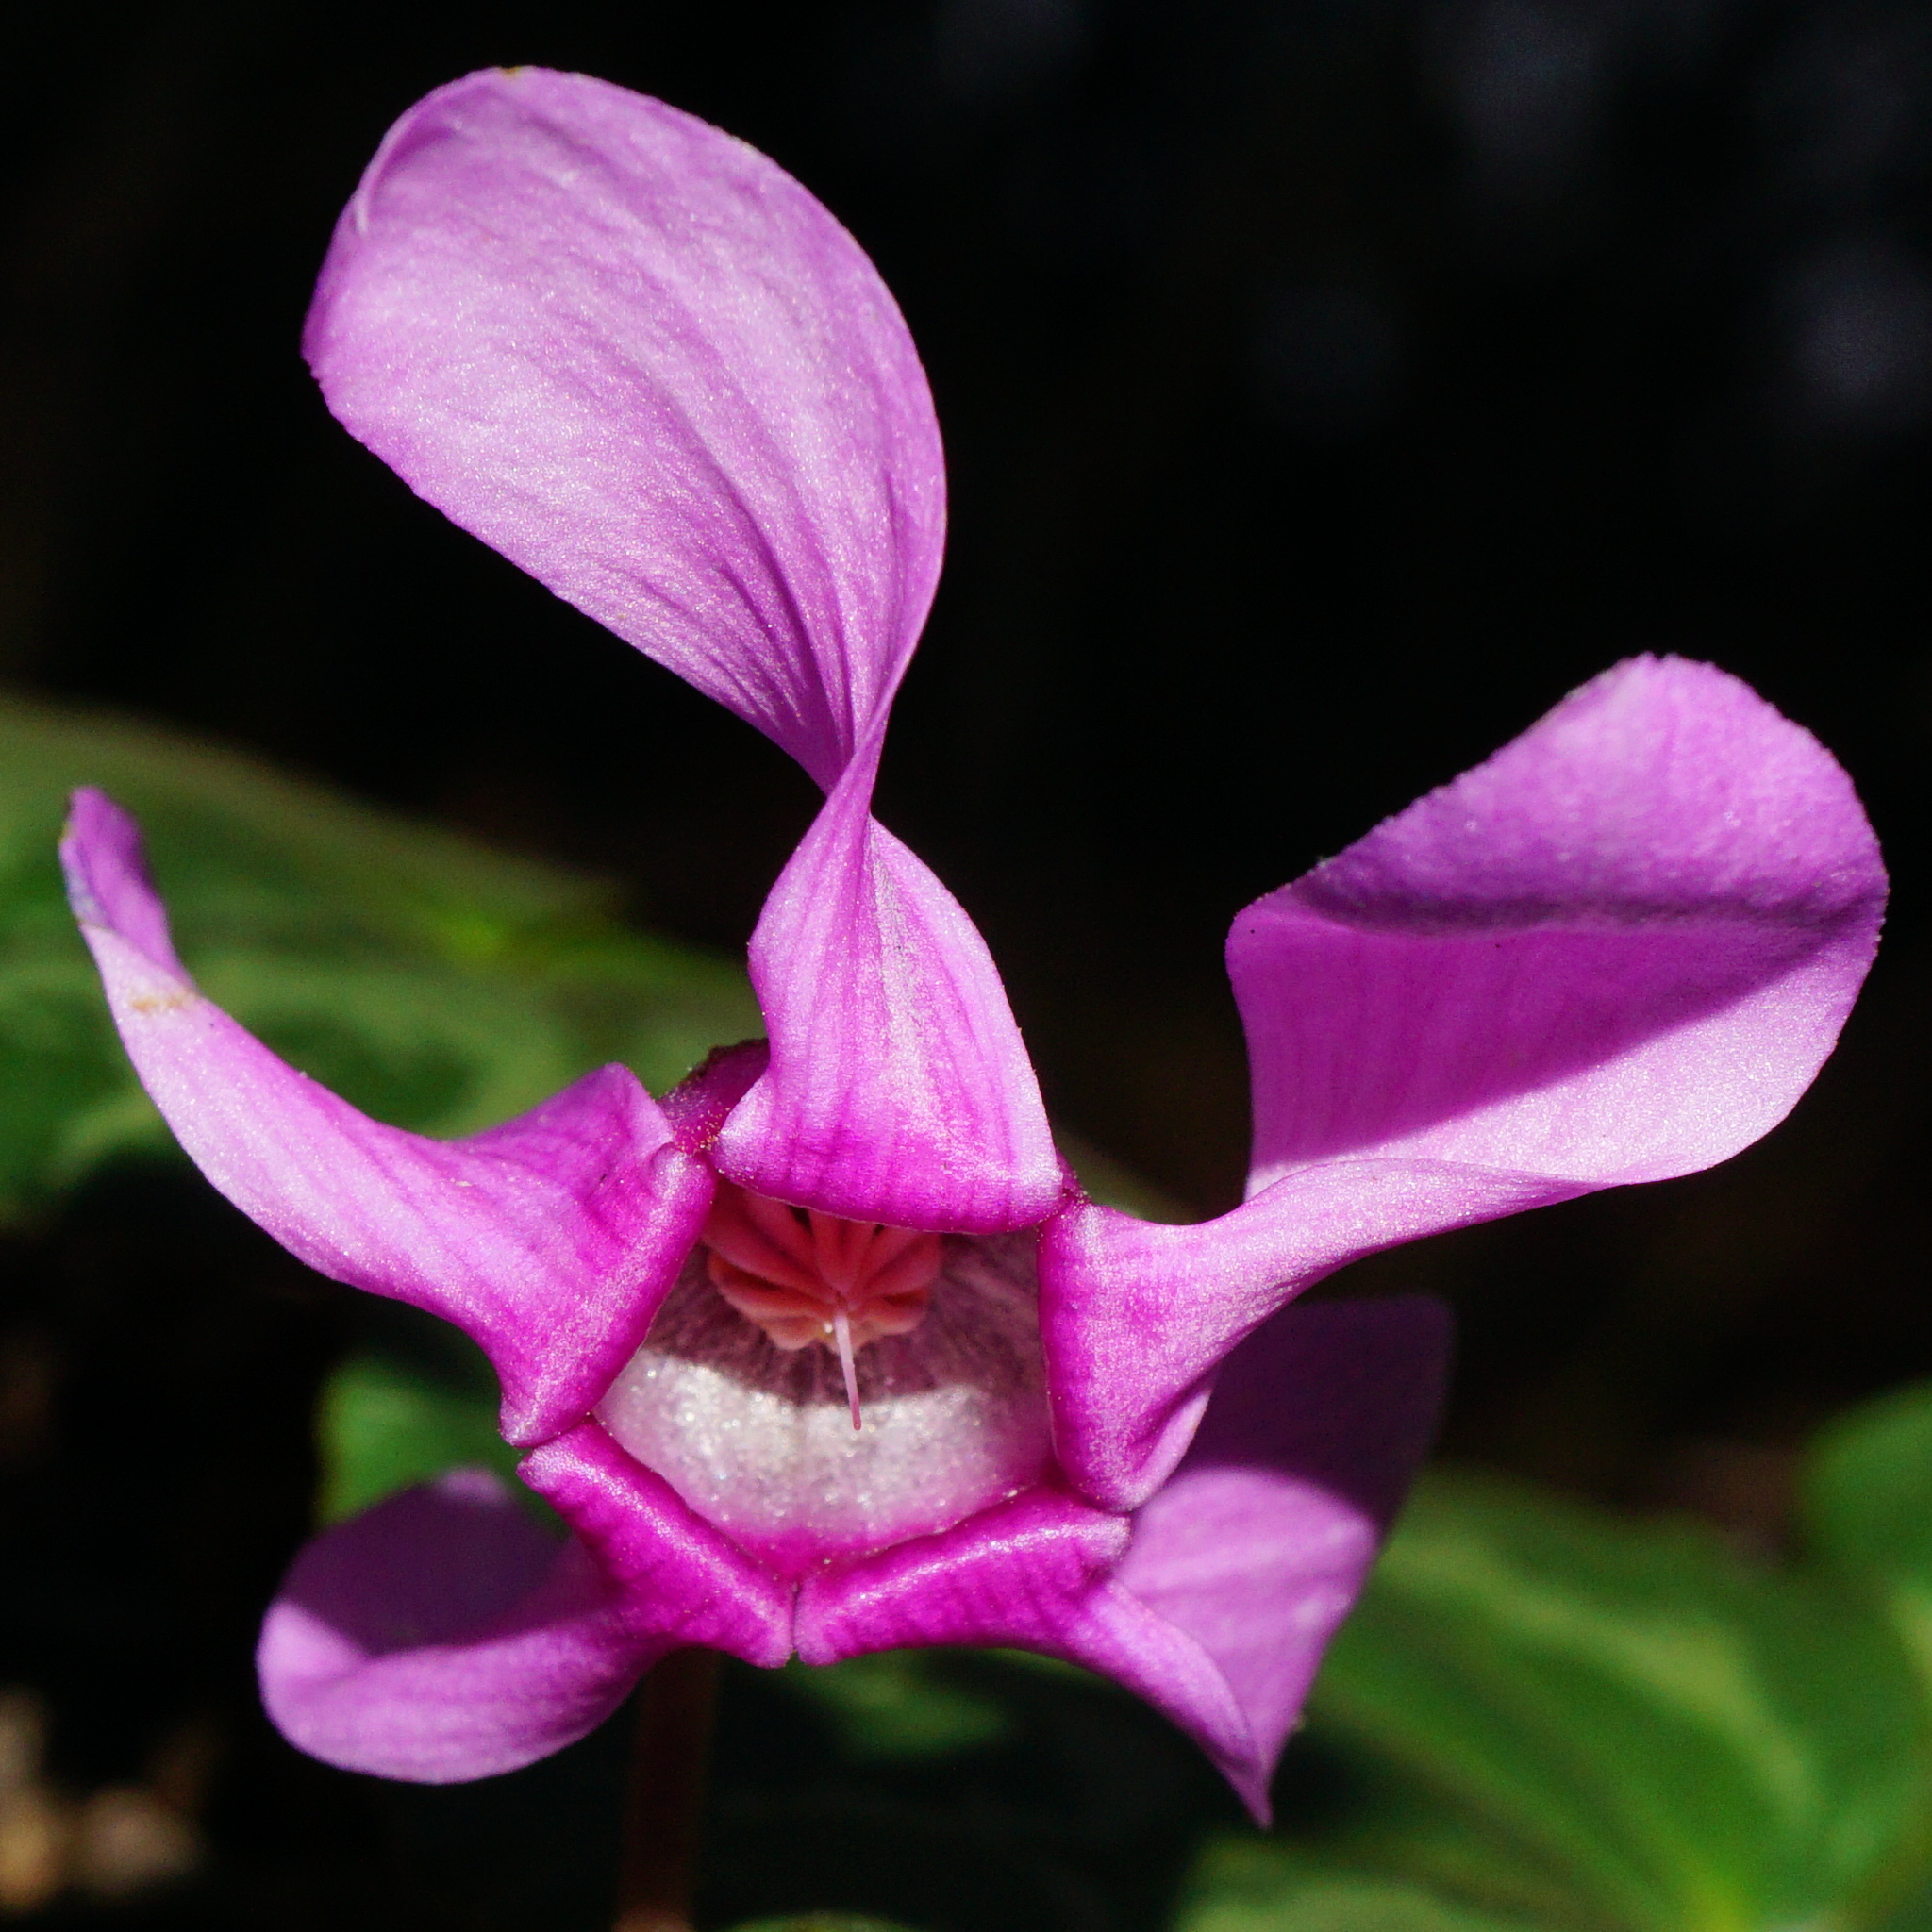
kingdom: Plantae
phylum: Tracheophyta
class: Magnoliopsida
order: Ericales
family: Primulaceae
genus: Cyclamen
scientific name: Cyclamen purpurascens
